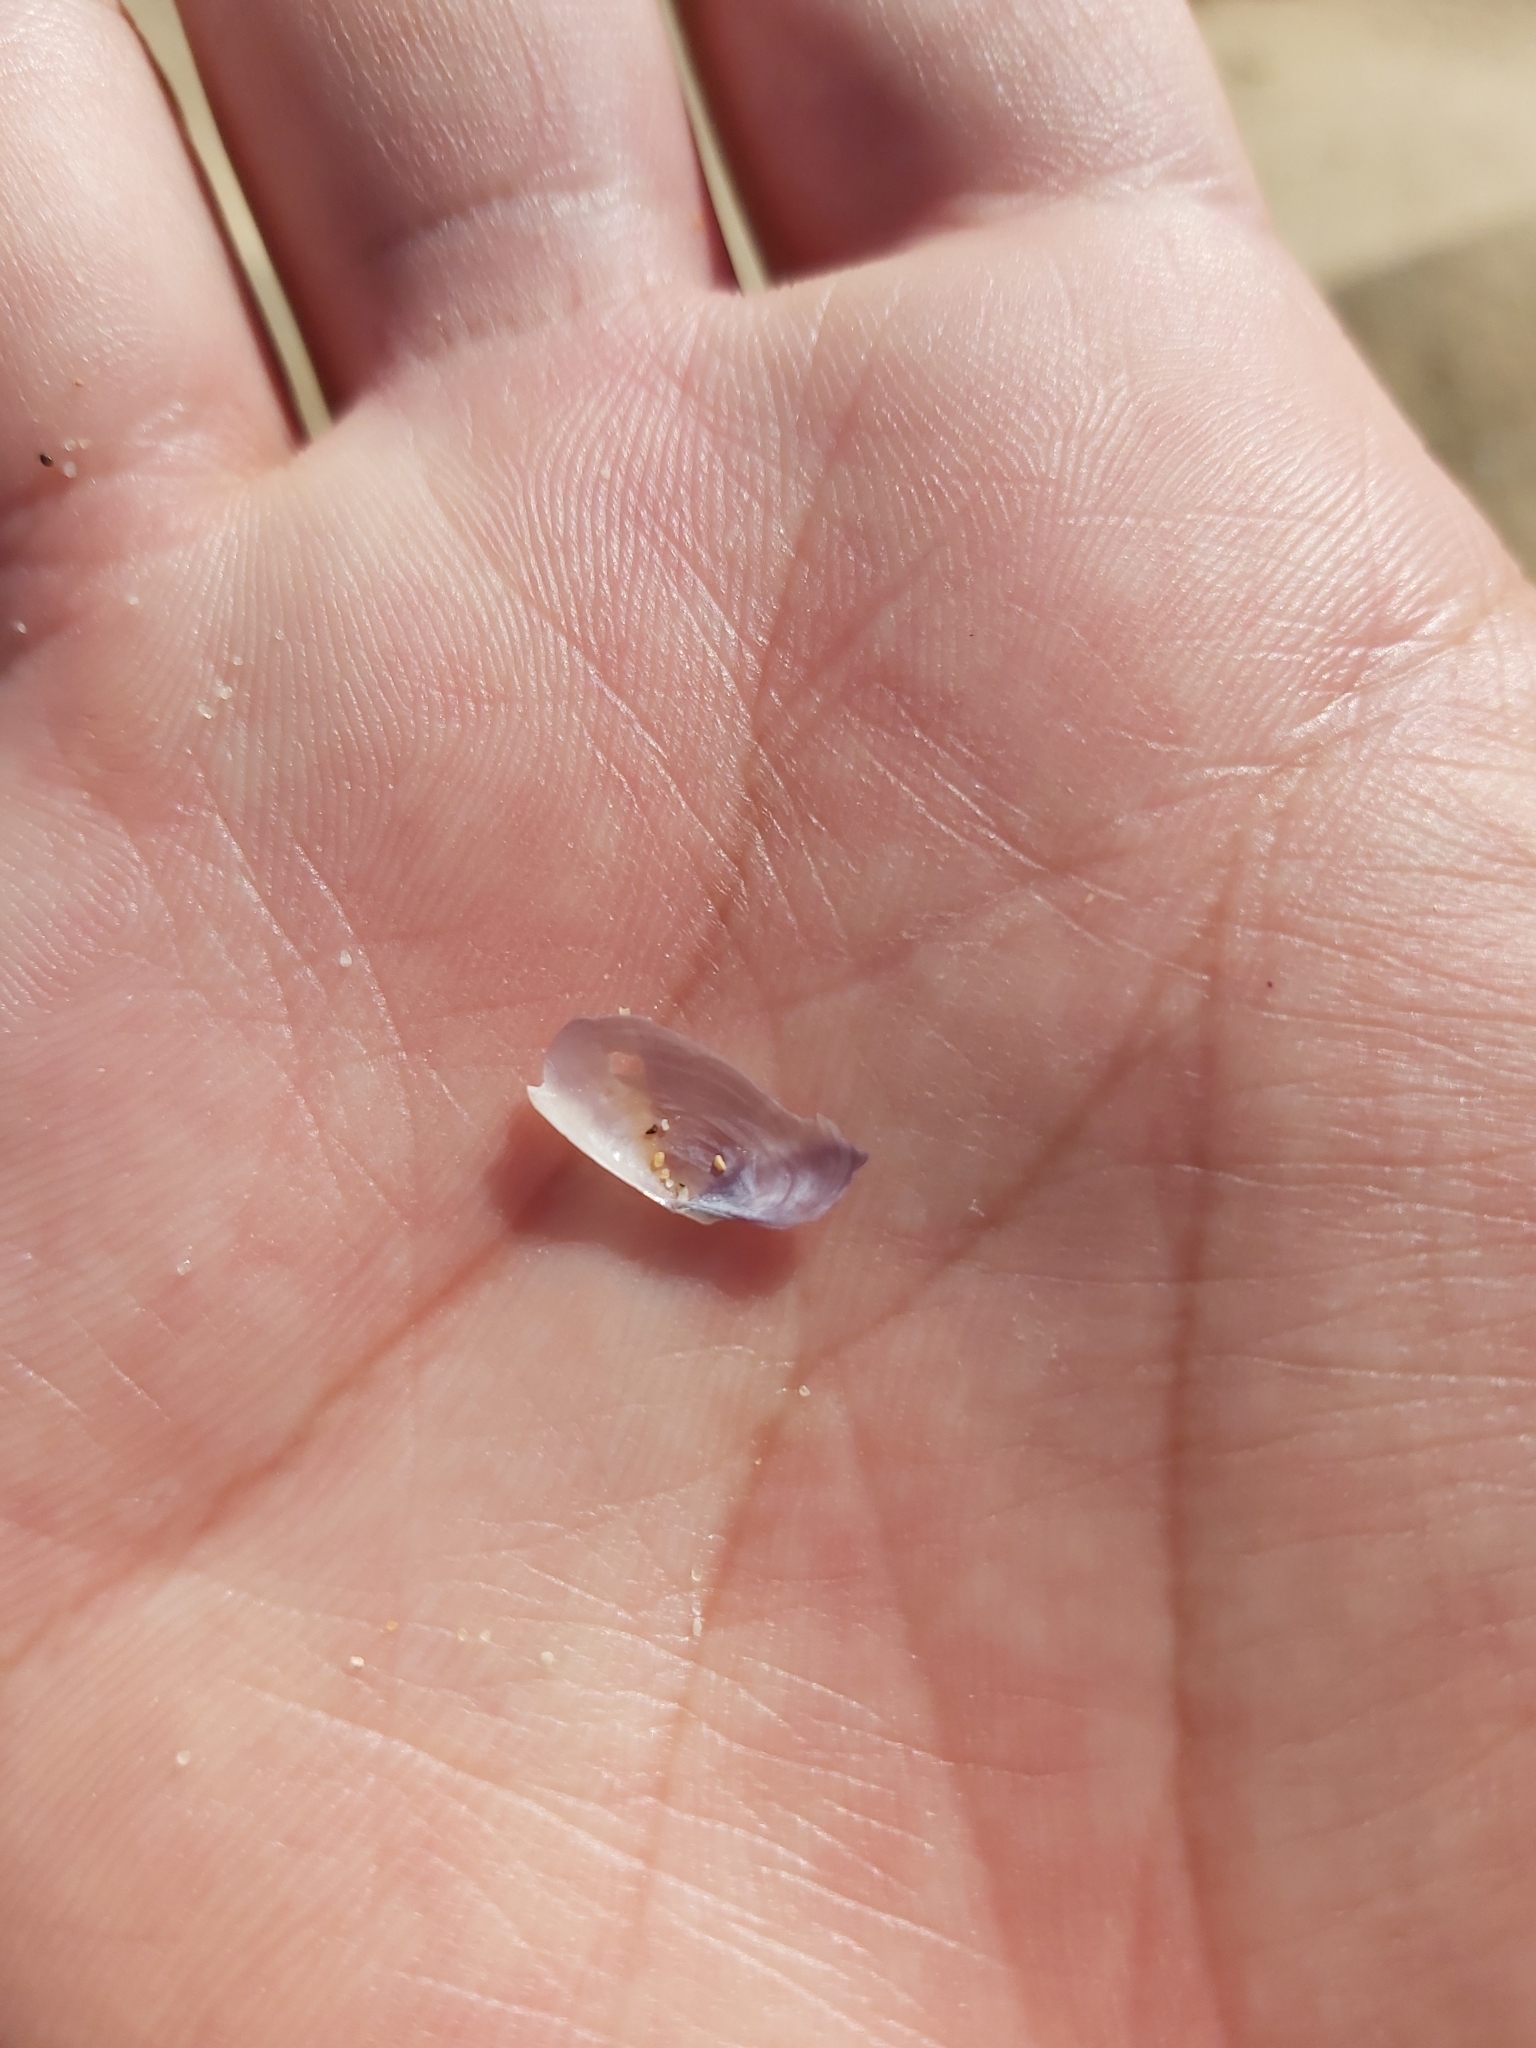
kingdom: Animalia
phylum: Mollusca
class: Bivalvia
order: Cardiida
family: Psammobiidae
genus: Hiatula
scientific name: Hiatula alba
